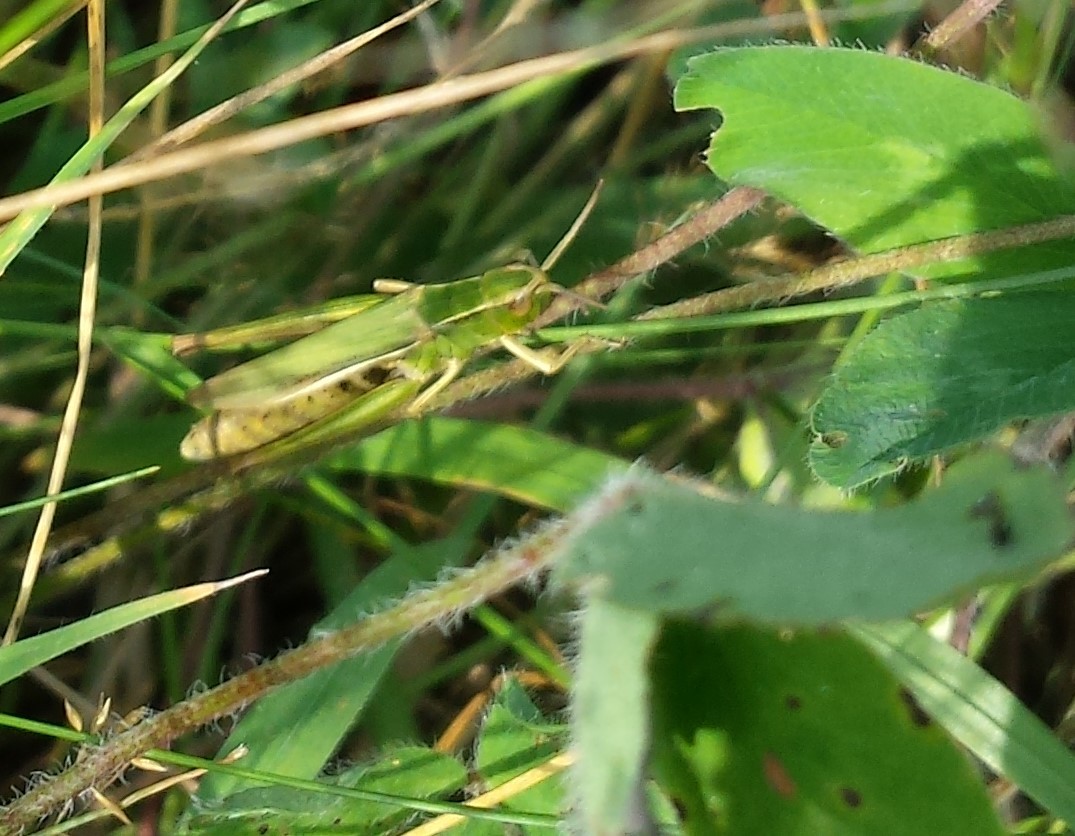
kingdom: Animalia
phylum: Arthropoda
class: Insecta
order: Orthoptera
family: Acrididae
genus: Chorthippus
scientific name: Chorthippus albomarginatus
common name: Lesser marsh grasshopper
